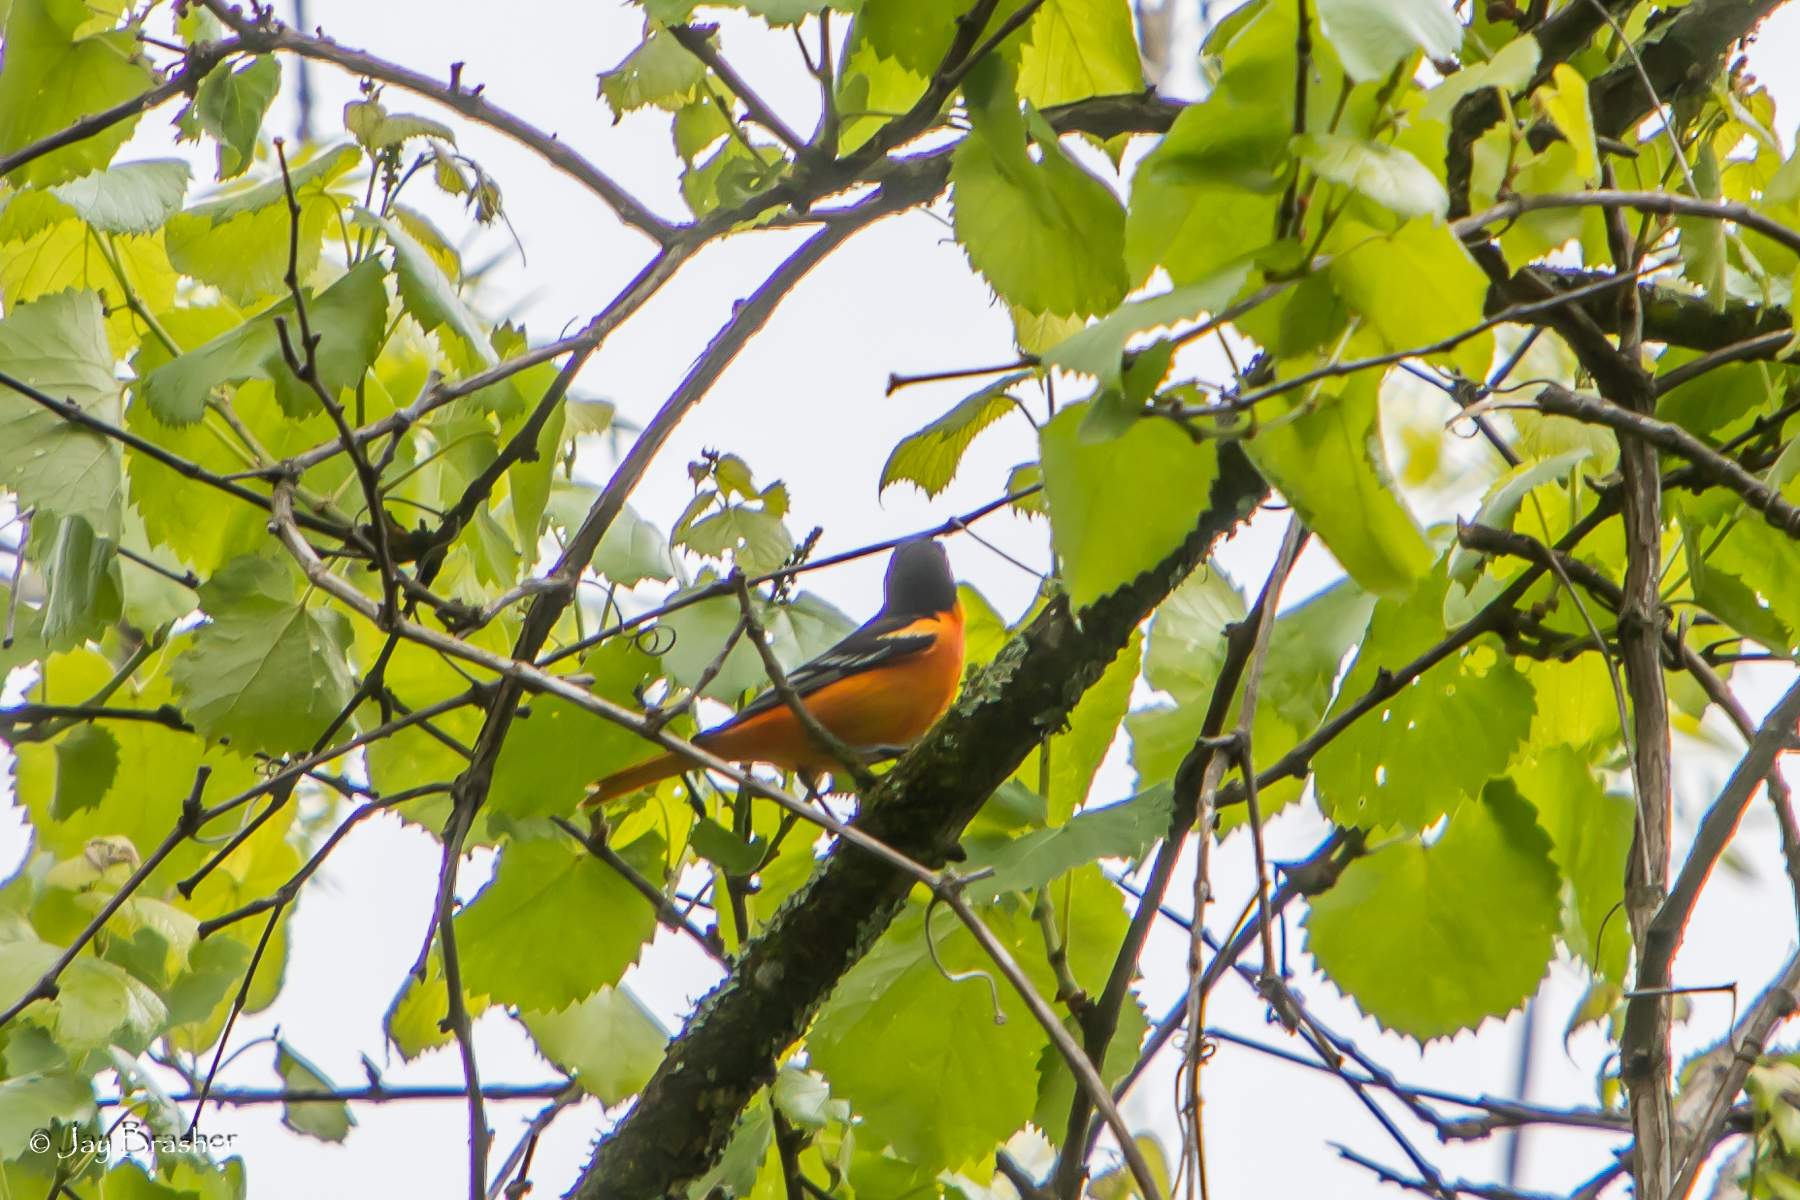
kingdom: Animalia
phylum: Chordata
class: Aves
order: Passeriformes
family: Icteridae
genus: Icterus
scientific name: Icterus galbula
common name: Baltimore oriole
